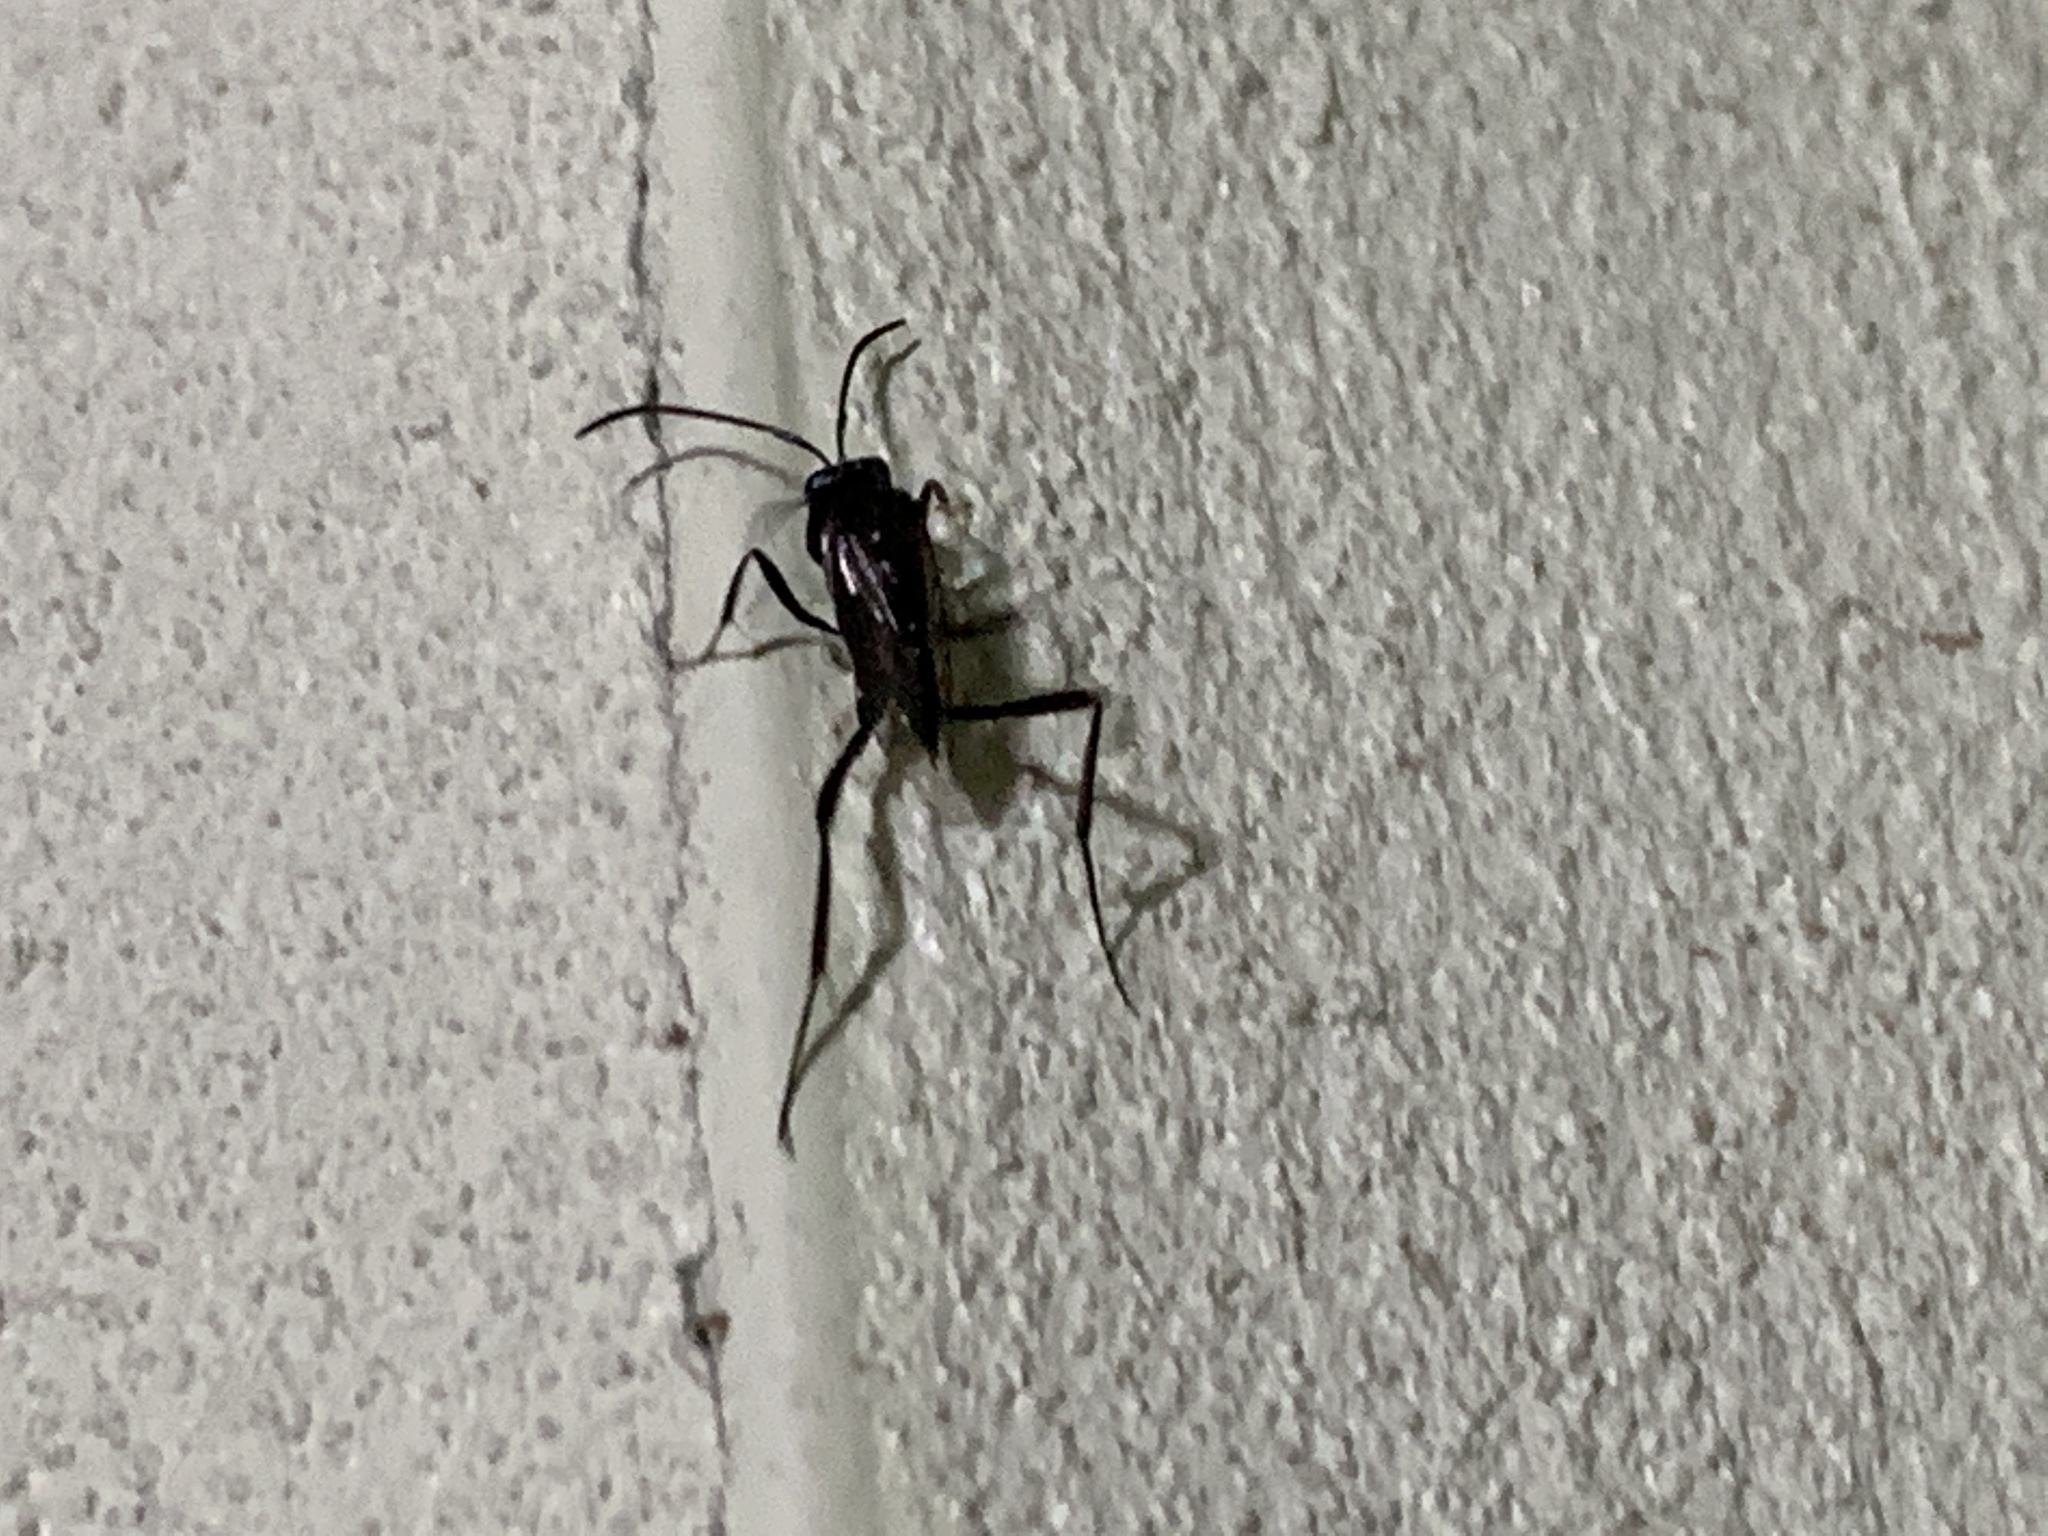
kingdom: Animalia
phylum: Arthropoda
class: Insecta
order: Hymenoptera
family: Evaniidae
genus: Evania
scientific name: Evania appendigaster
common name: Ensign wasp
